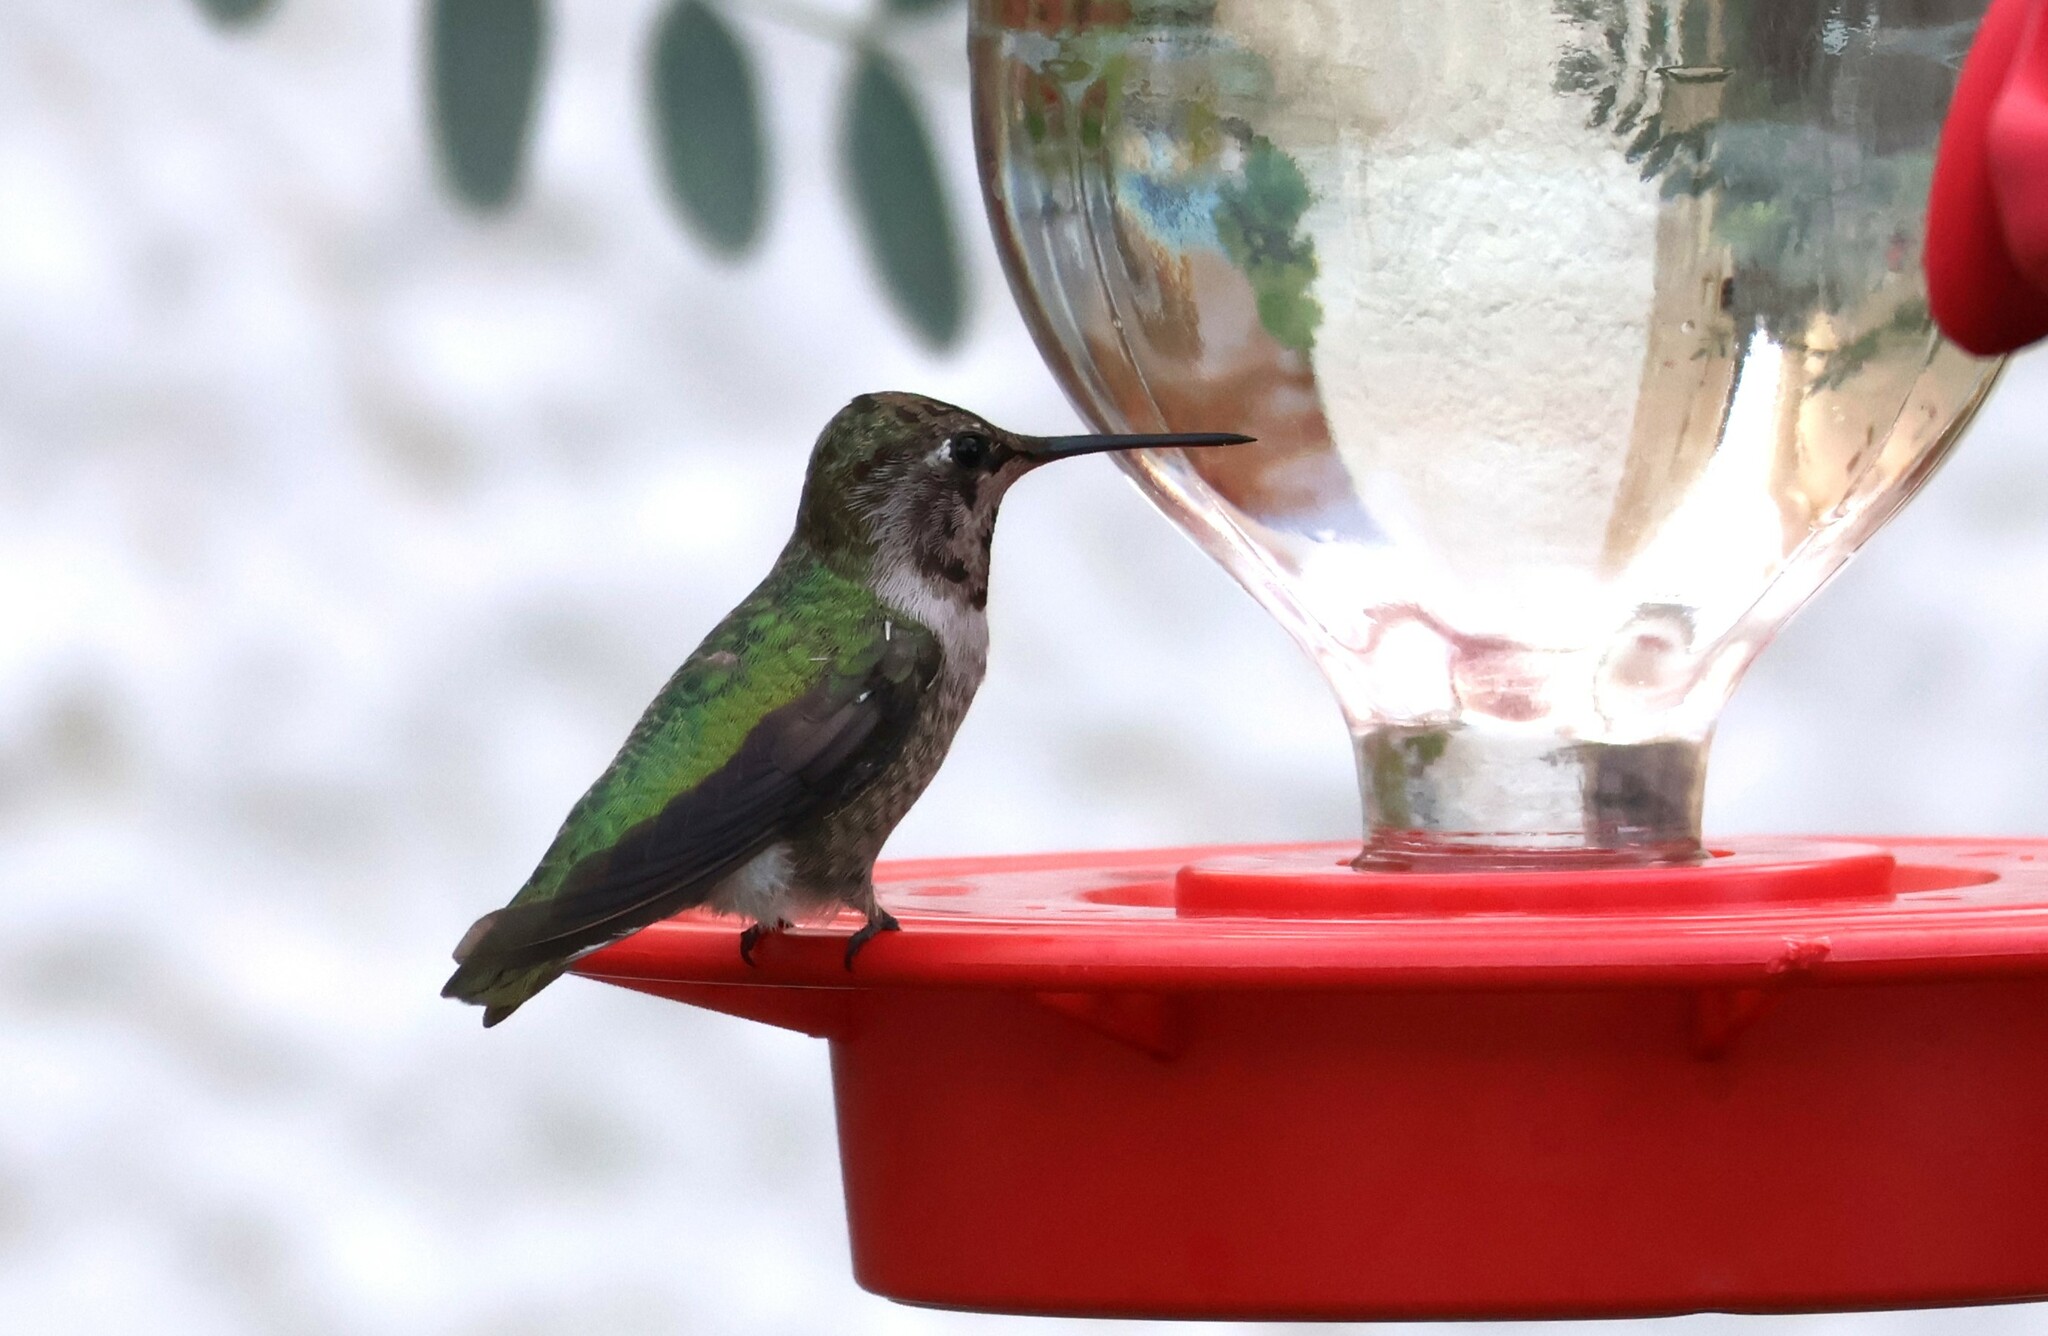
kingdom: Animalia
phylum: Chordata
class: Aves
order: Apodiformes
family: Trochilidae
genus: Calypte
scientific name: Calypte anna
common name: Anna's hummingbird
